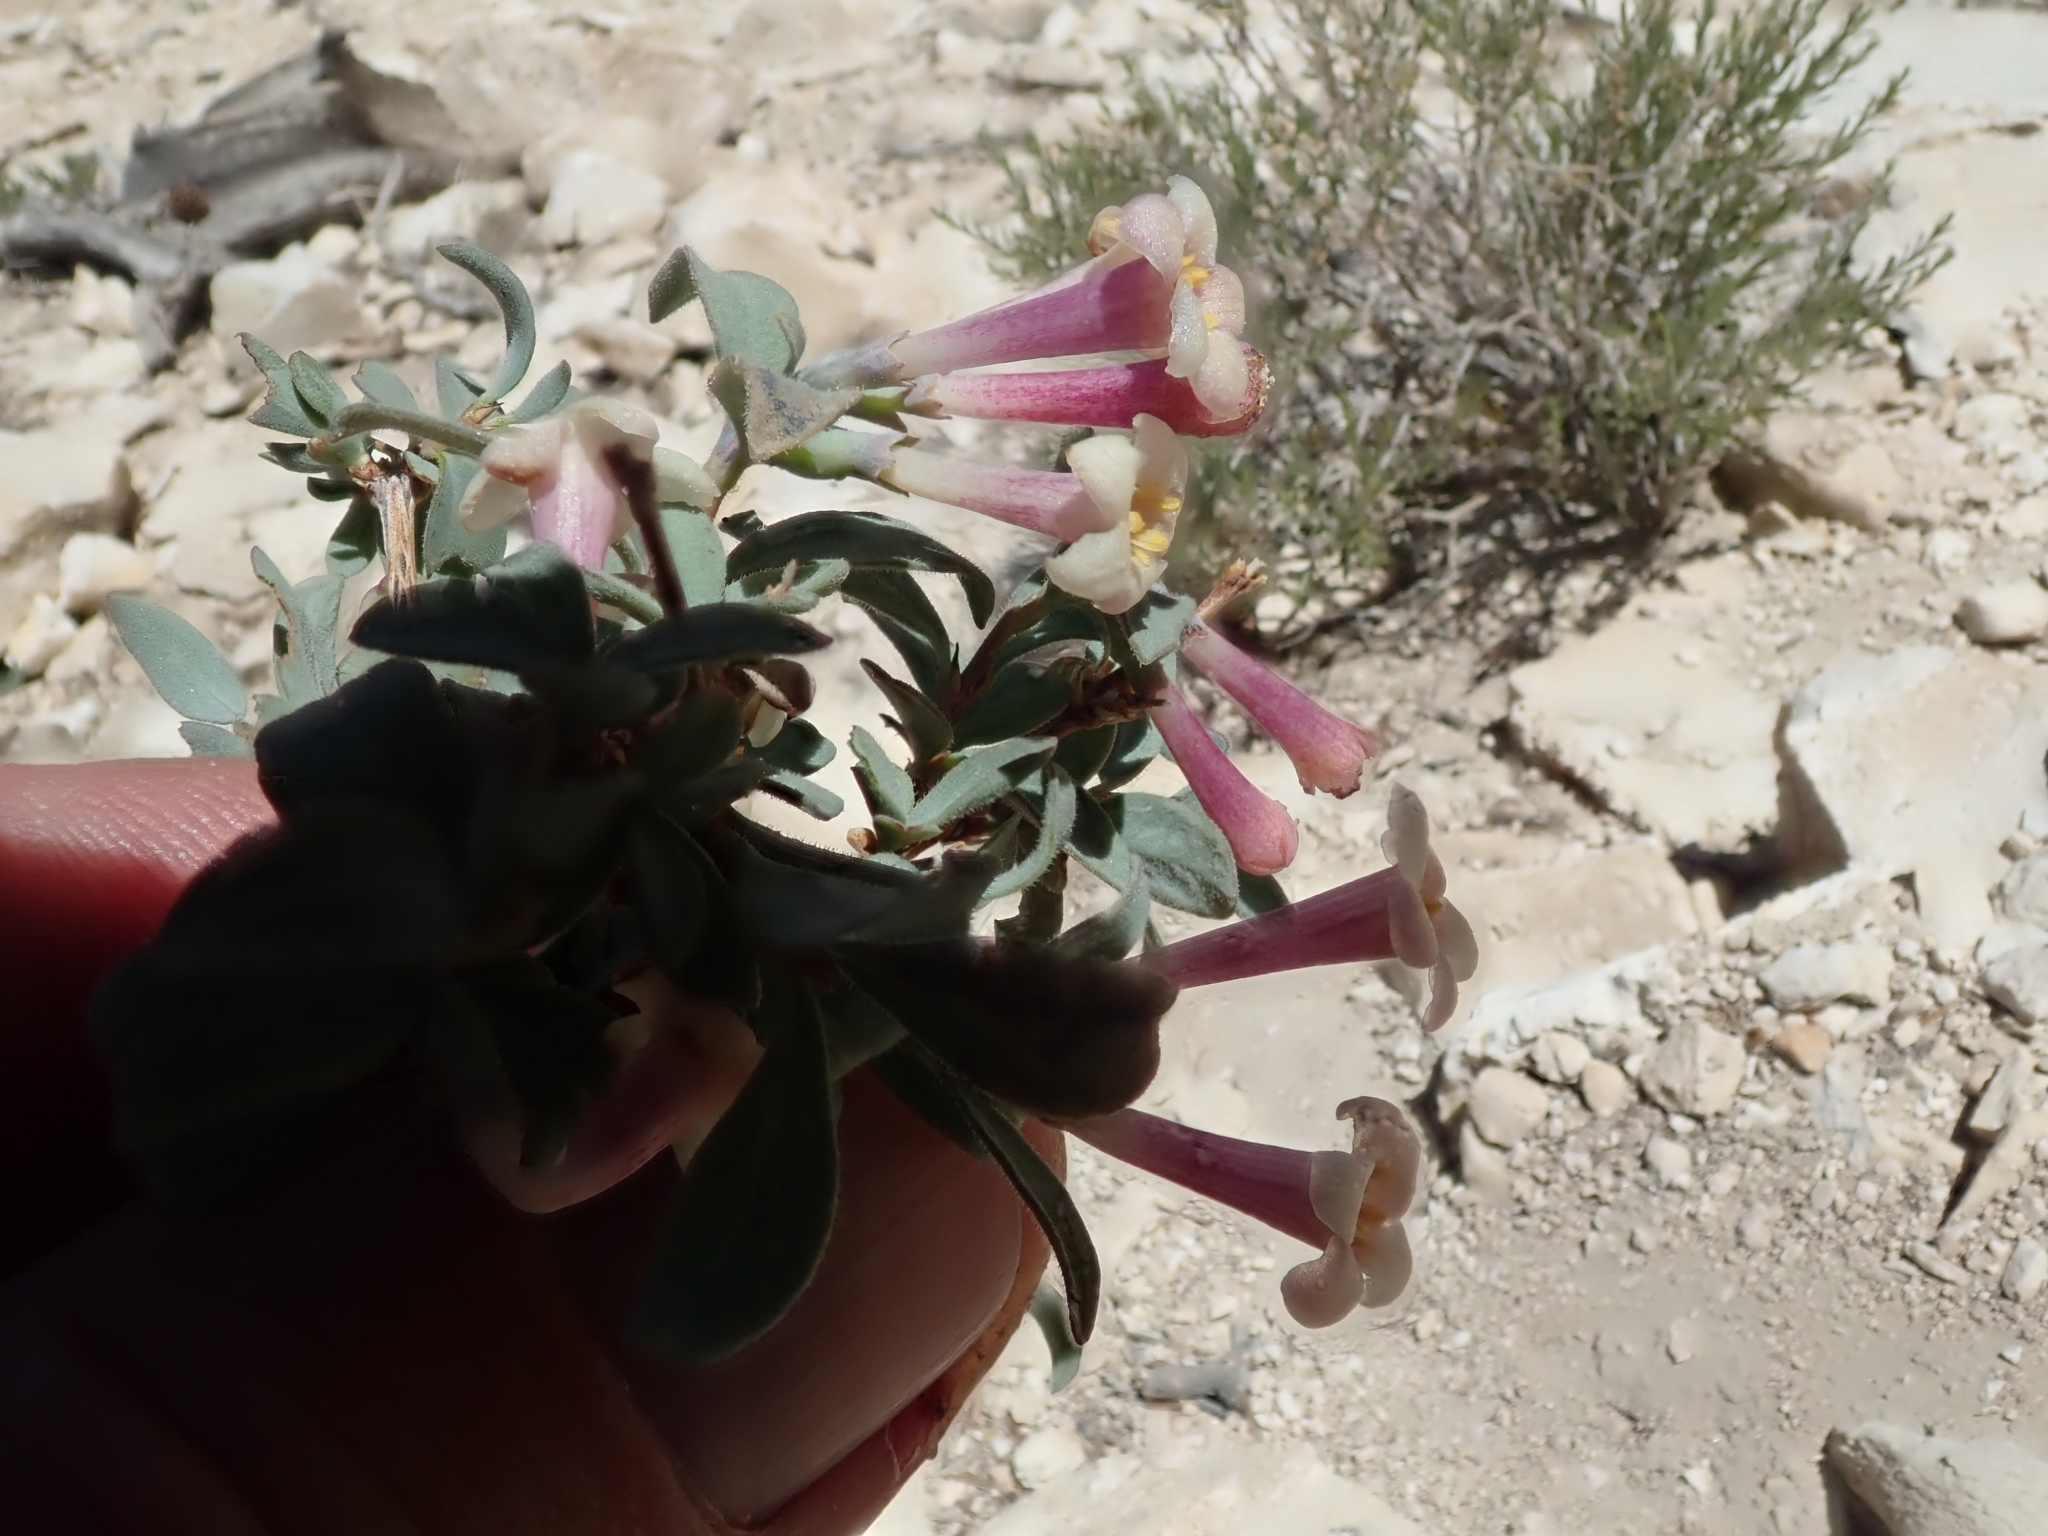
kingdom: Plantae
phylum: Tracheophyta
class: Magnoliopsida
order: Dipsacales
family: Caprifoliaceae
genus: Symphoricarpos
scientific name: Symphoricarpos longiflorus
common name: Fragrant snowberry
